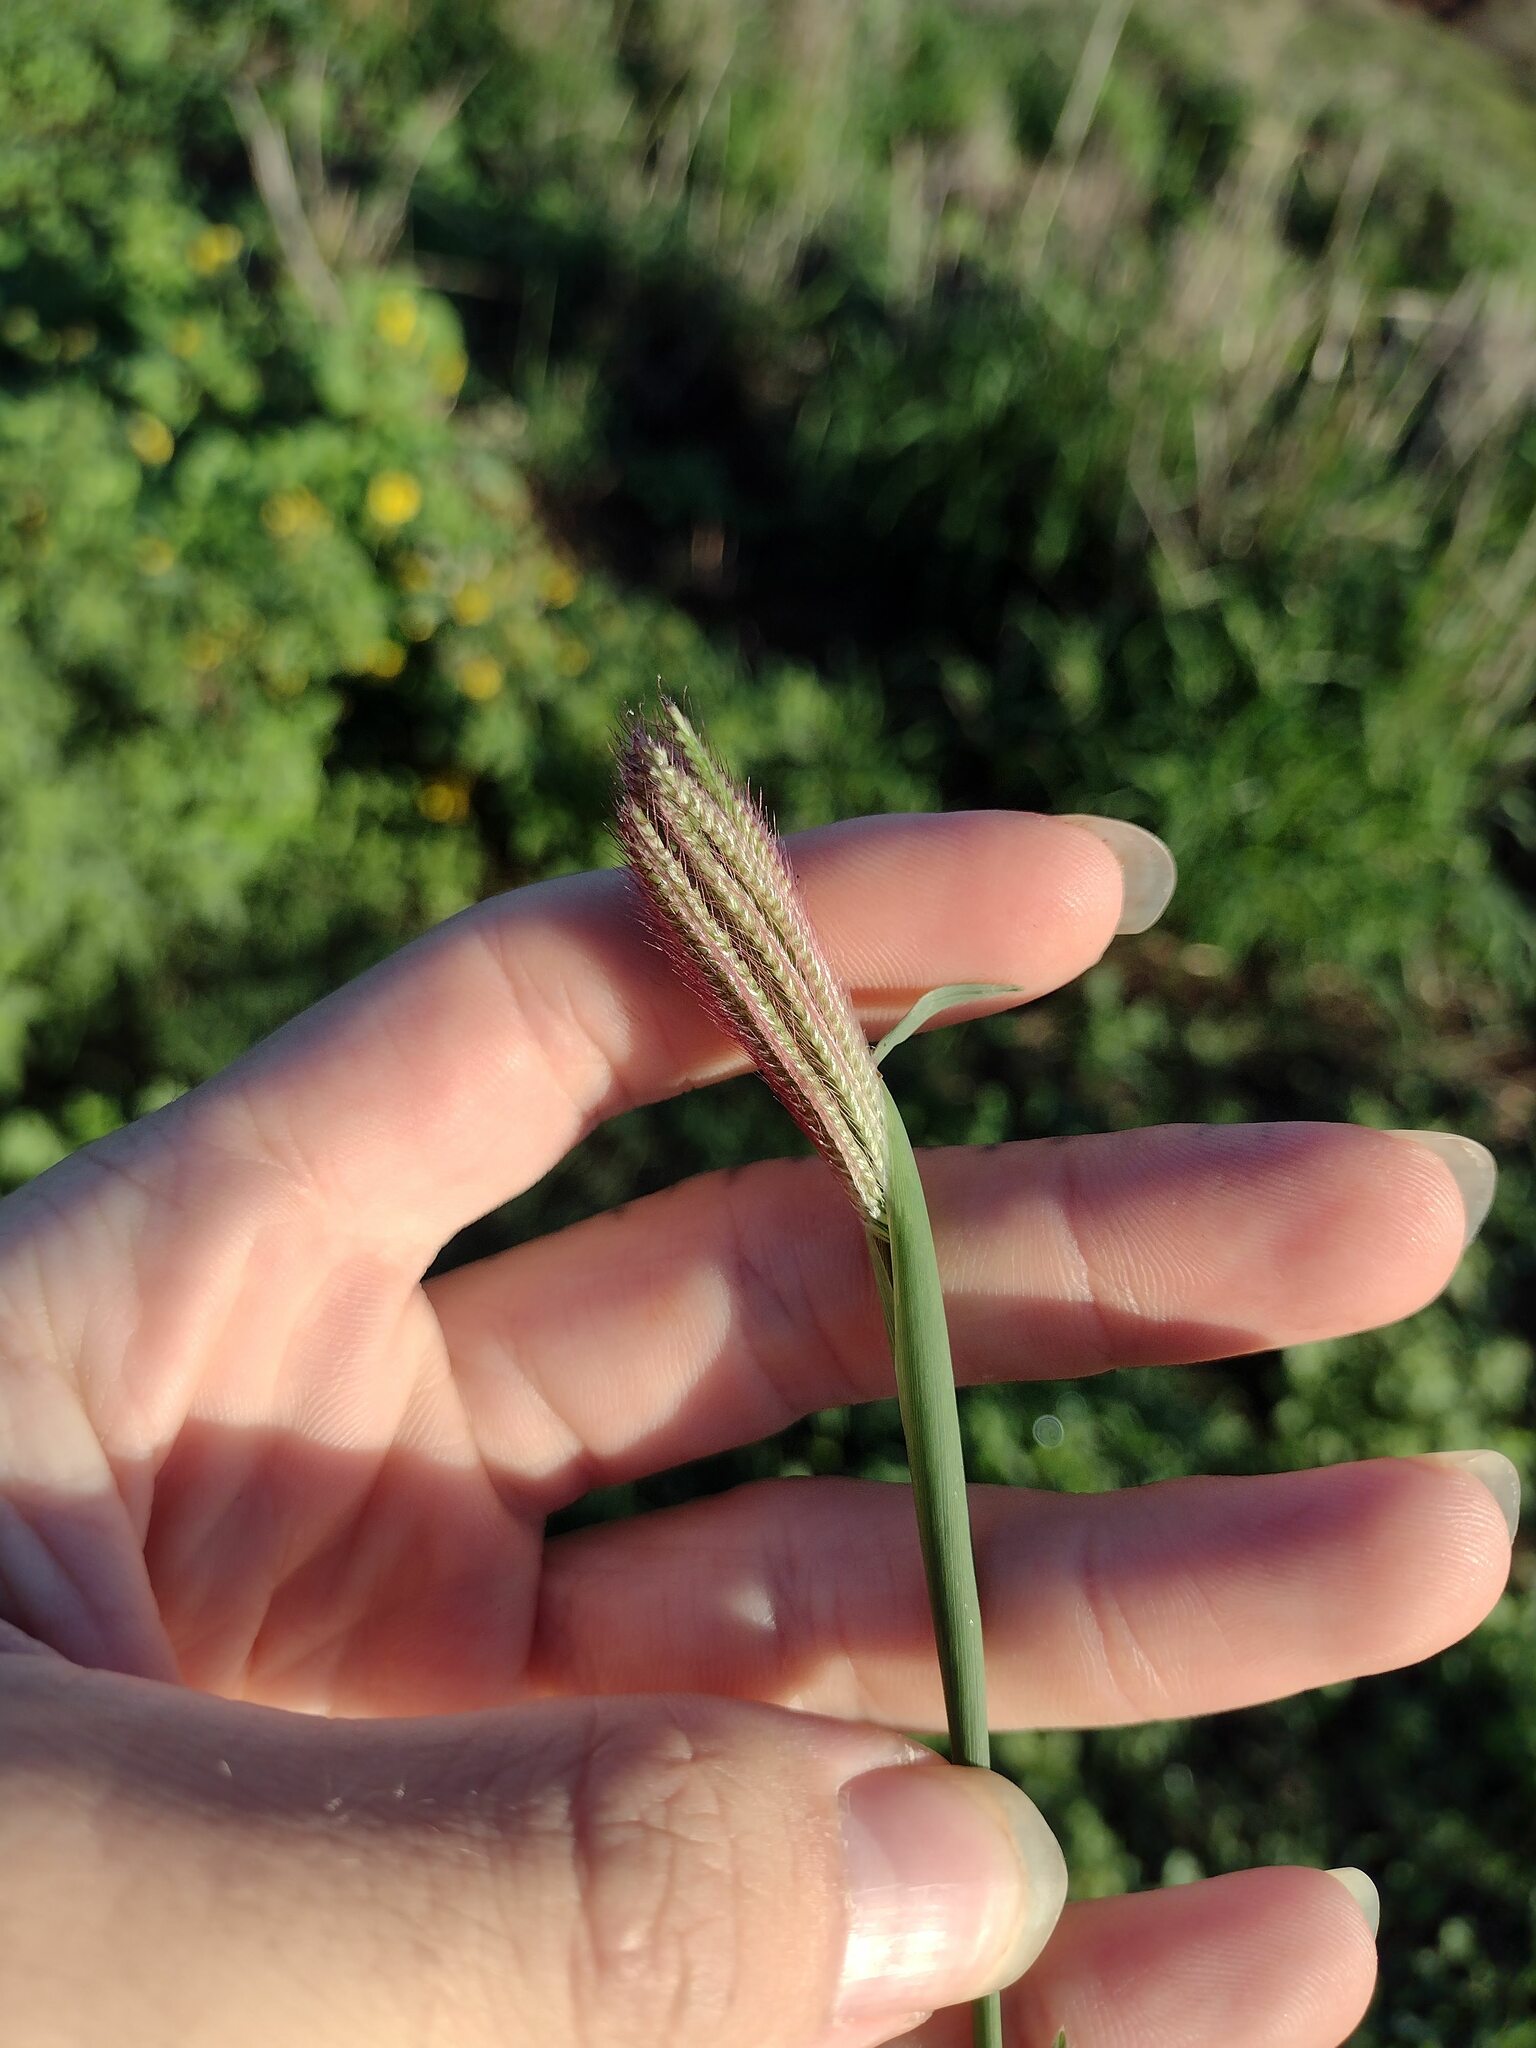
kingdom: Plantae
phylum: Tracheophyta
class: Liliopsida
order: Poales
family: Poaceae
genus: Chloris
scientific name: Chloris barbata
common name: Swollen fingergrass
